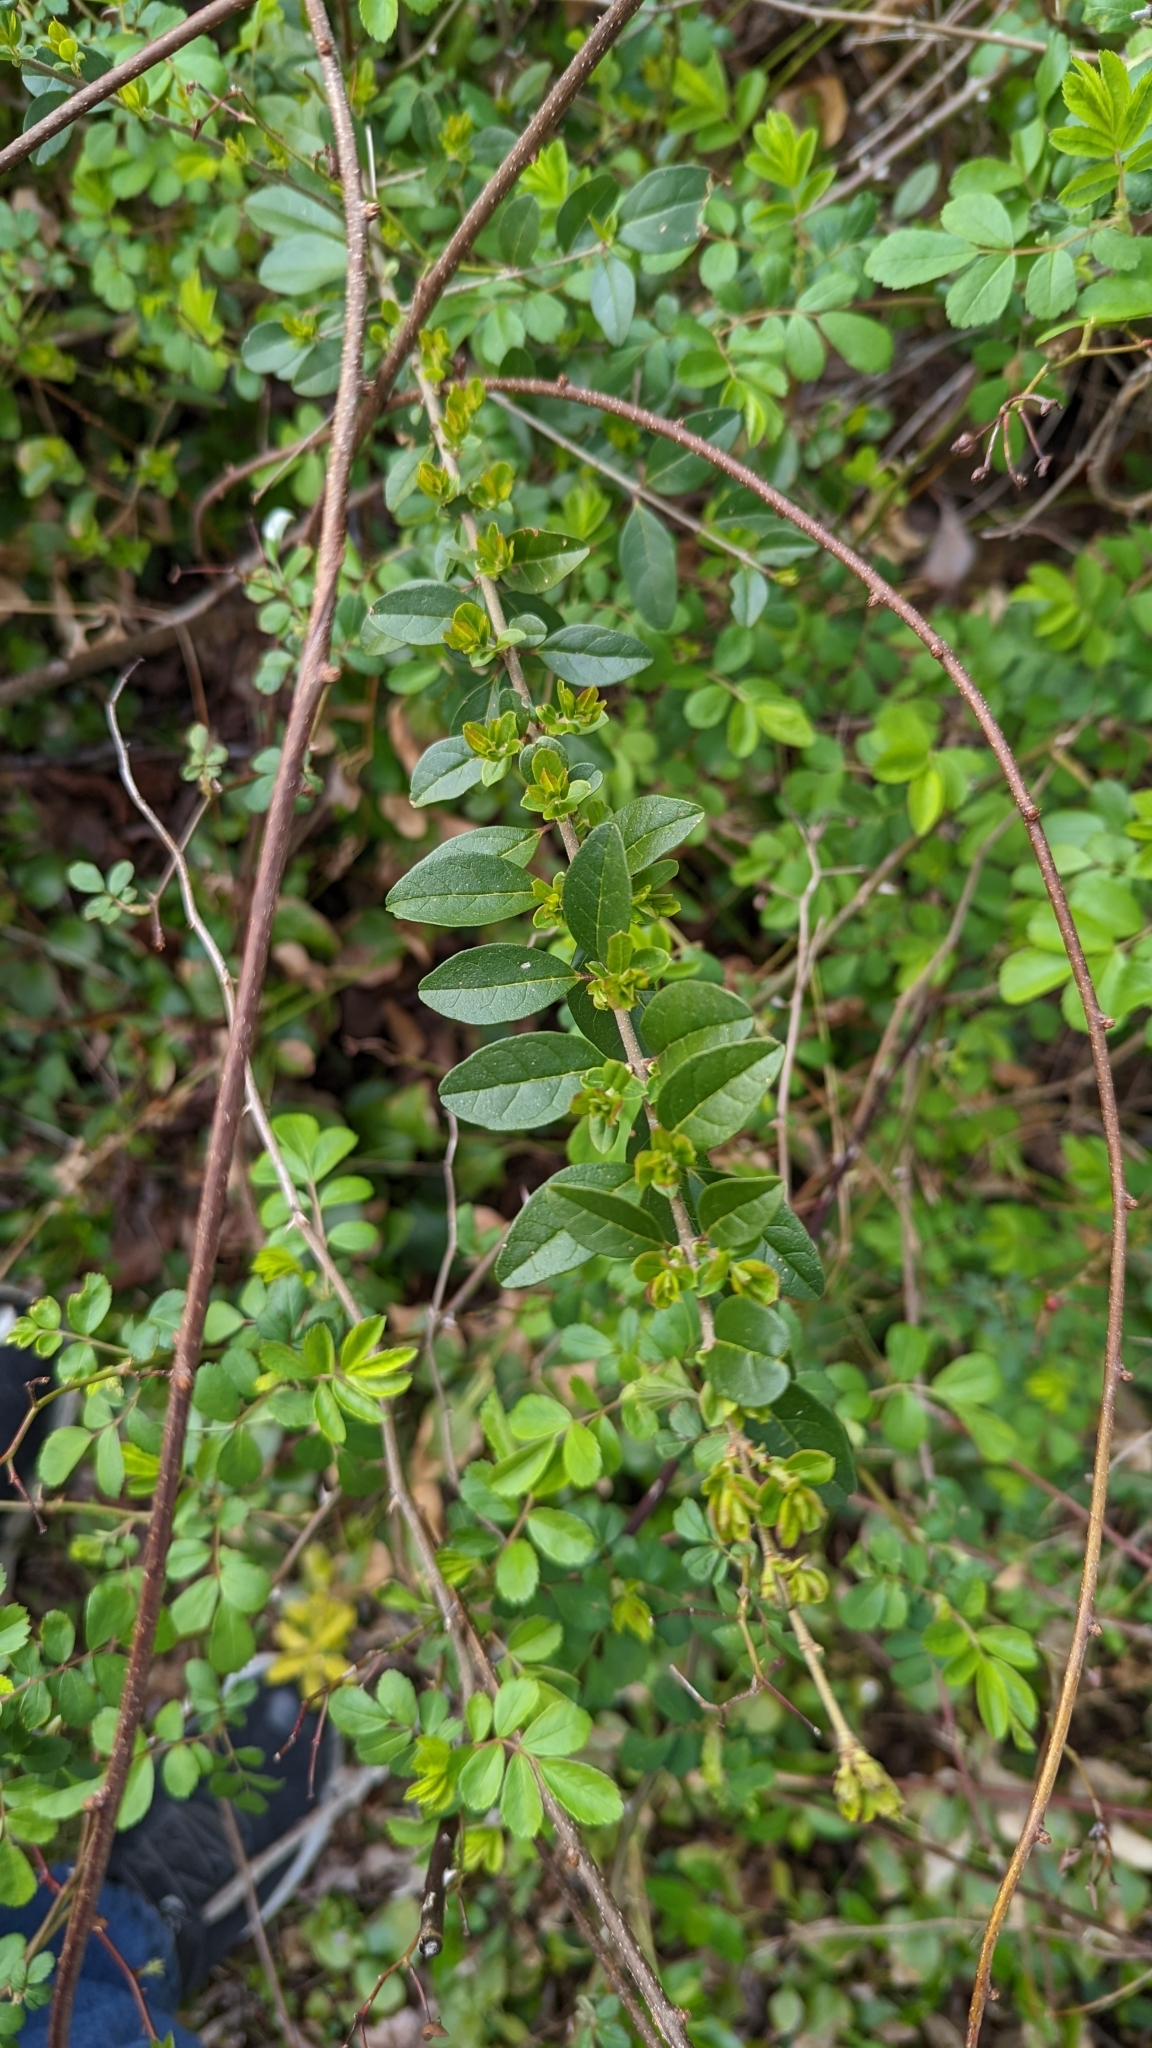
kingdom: Plantae
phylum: Tracheophyta
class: Magnoliopsida
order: Lamiales
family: Oleaceae
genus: Ligustrum
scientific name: Ligustrum sinense
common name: Chinese privet
